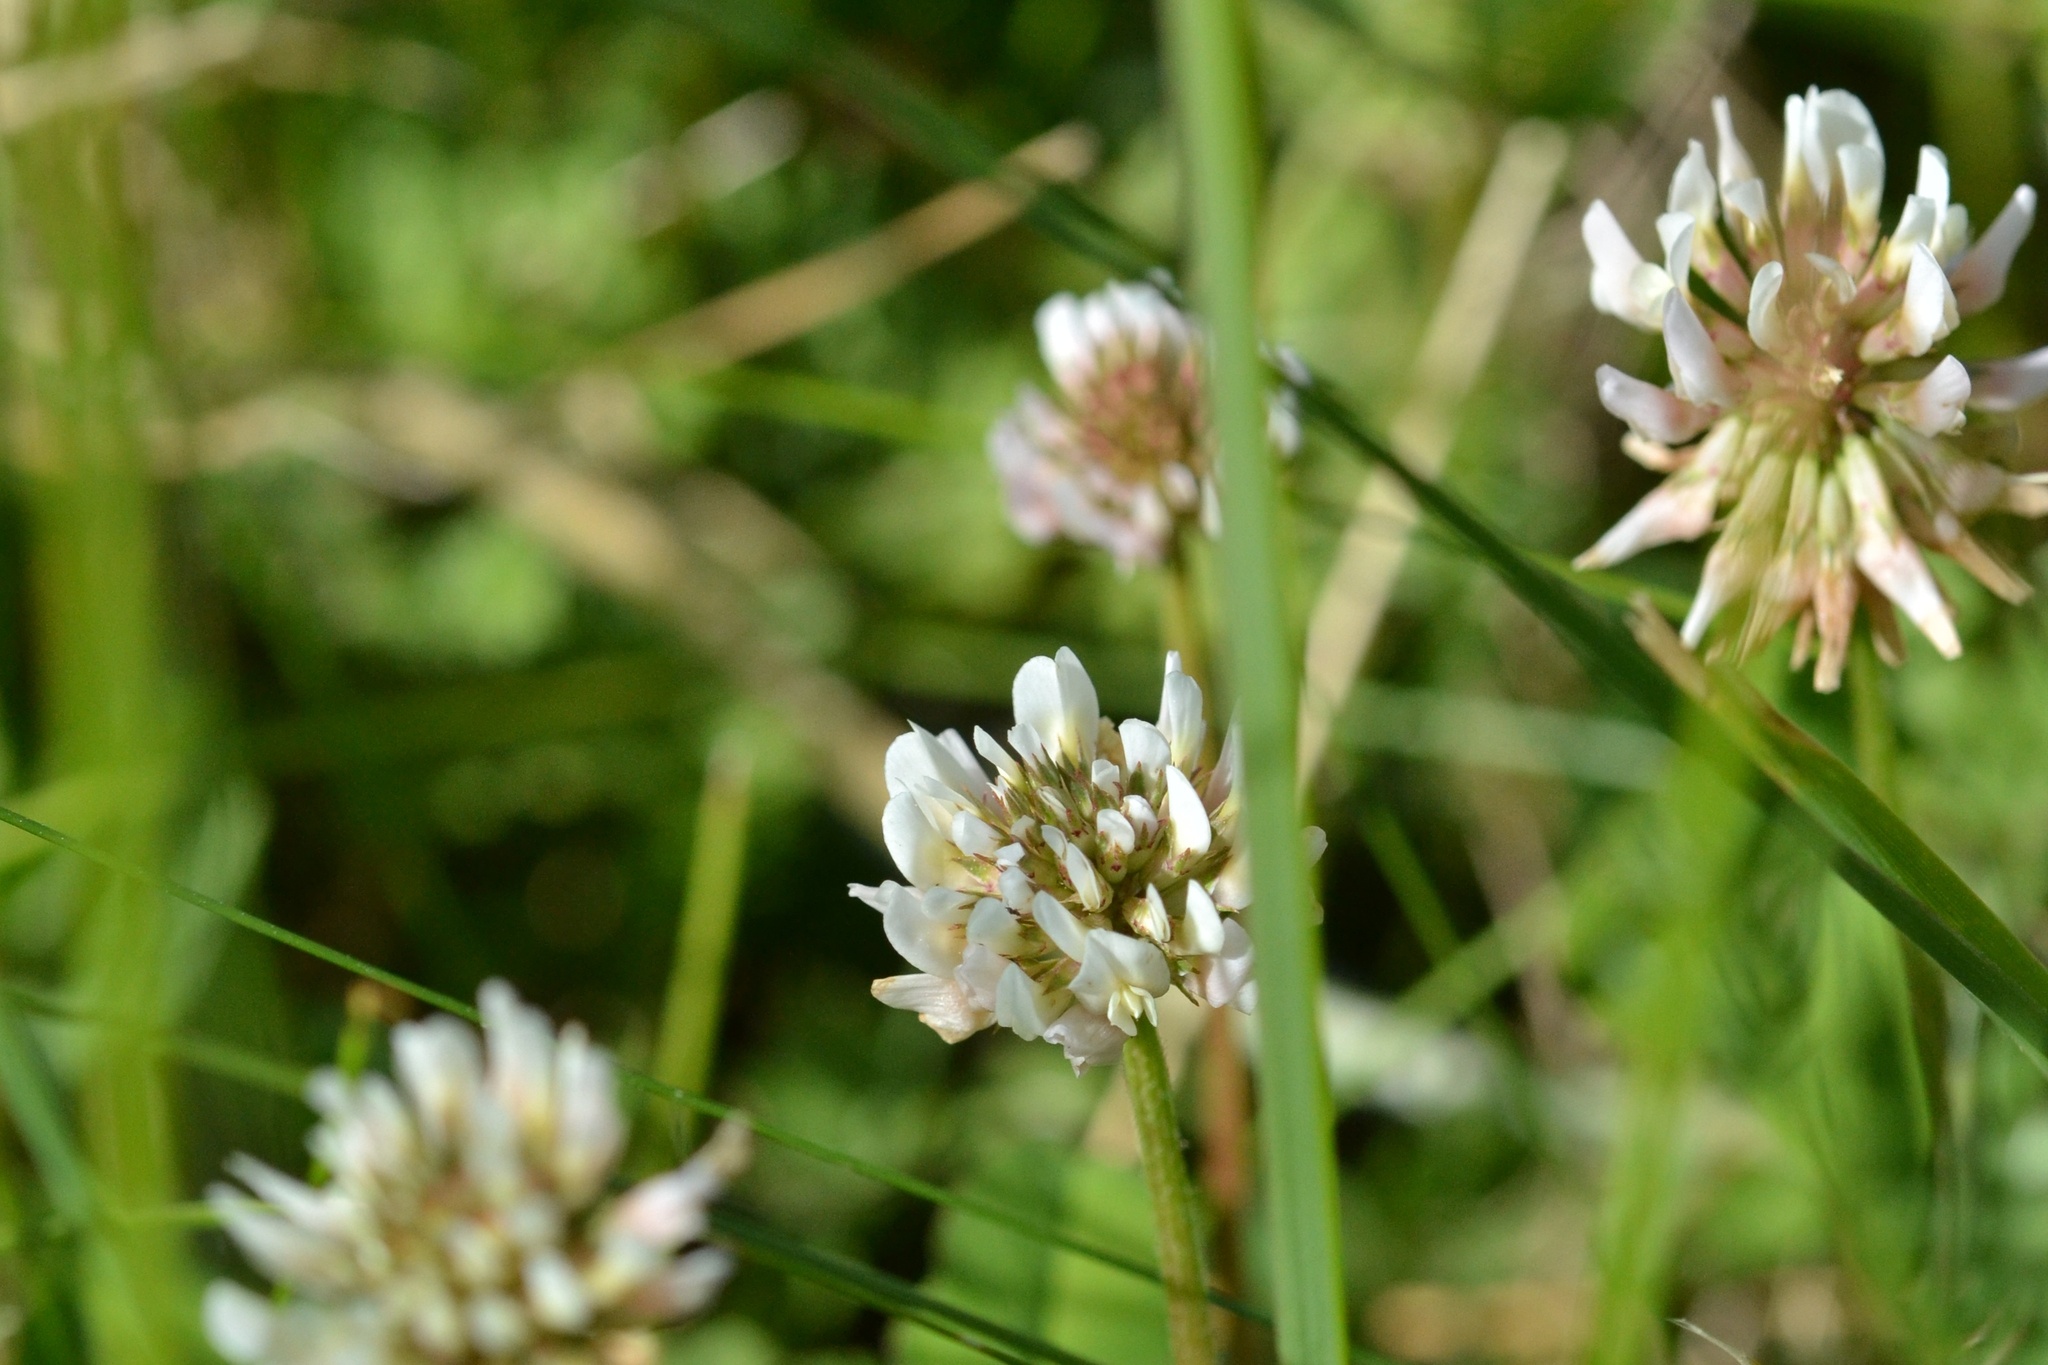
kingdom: Plantae
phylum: Tracheophyta
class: Magnoliopsida
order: Fabales
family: Fabaceae
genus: Trifolium
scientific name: Trifolium repens
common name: White clover
